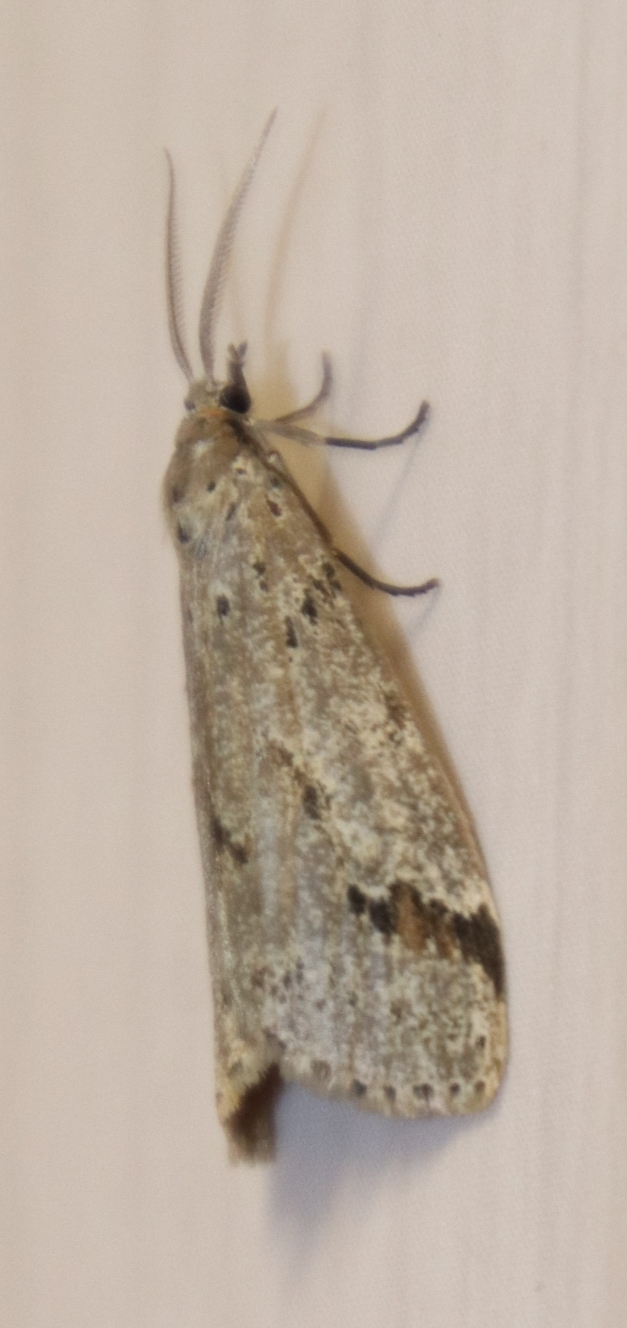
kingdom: Animalia
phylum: Arthropoda
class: Insecta
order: Lepidoptera
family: Erebidae
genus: Galtara
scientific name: Galtara rostrata
